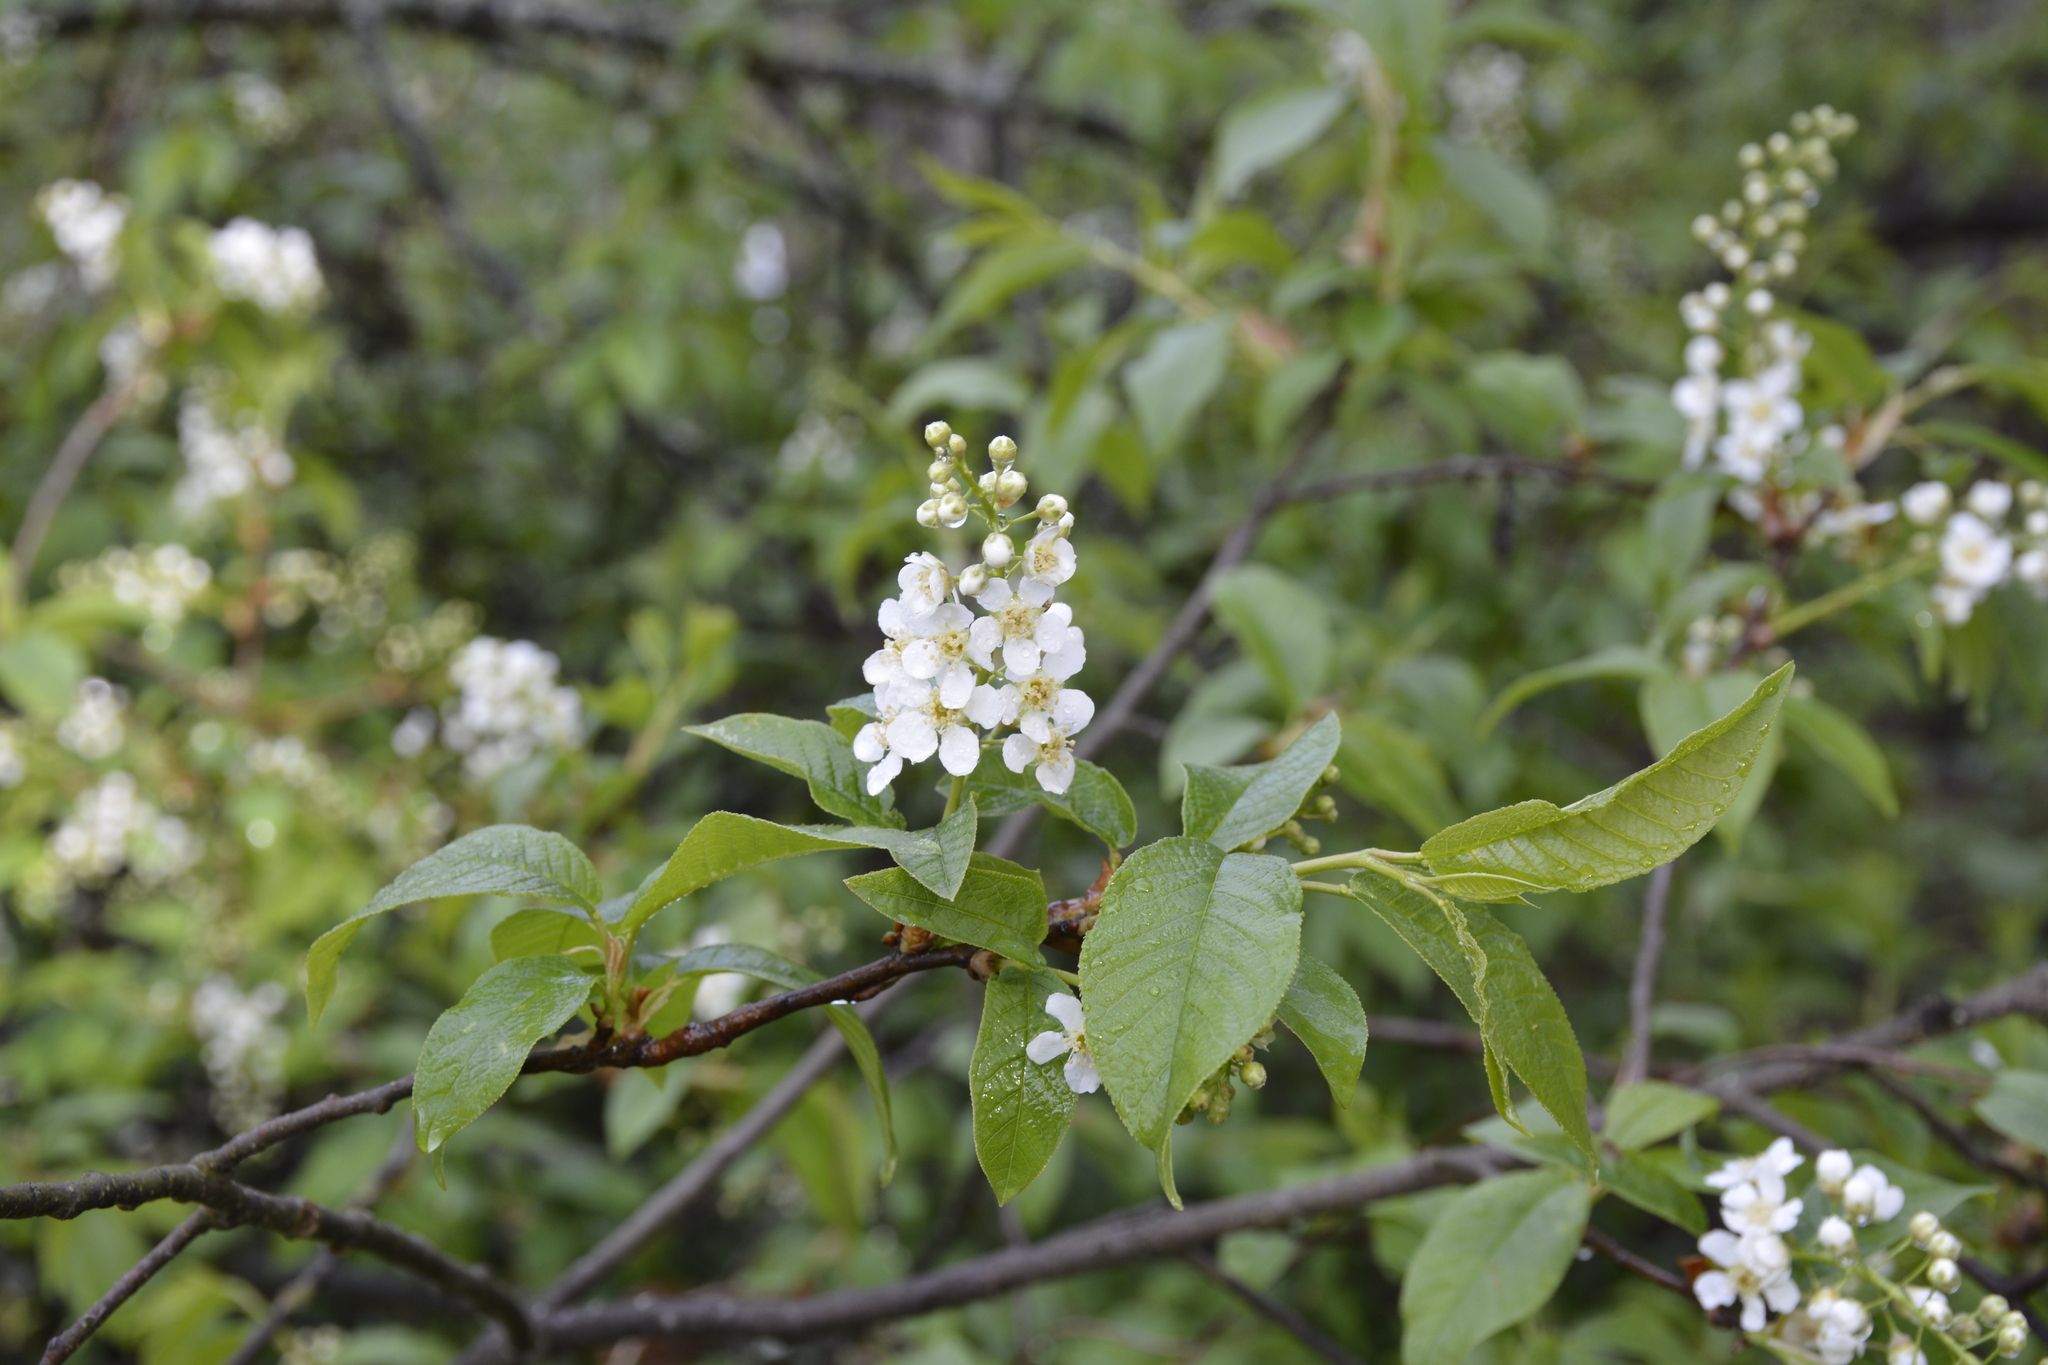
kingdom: Plantae
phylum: Tracheophyta
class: Magnoliopsida
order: Rosales
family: Rosaceae
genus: Prunus
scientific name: Prunus padus
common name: Bird cherry
